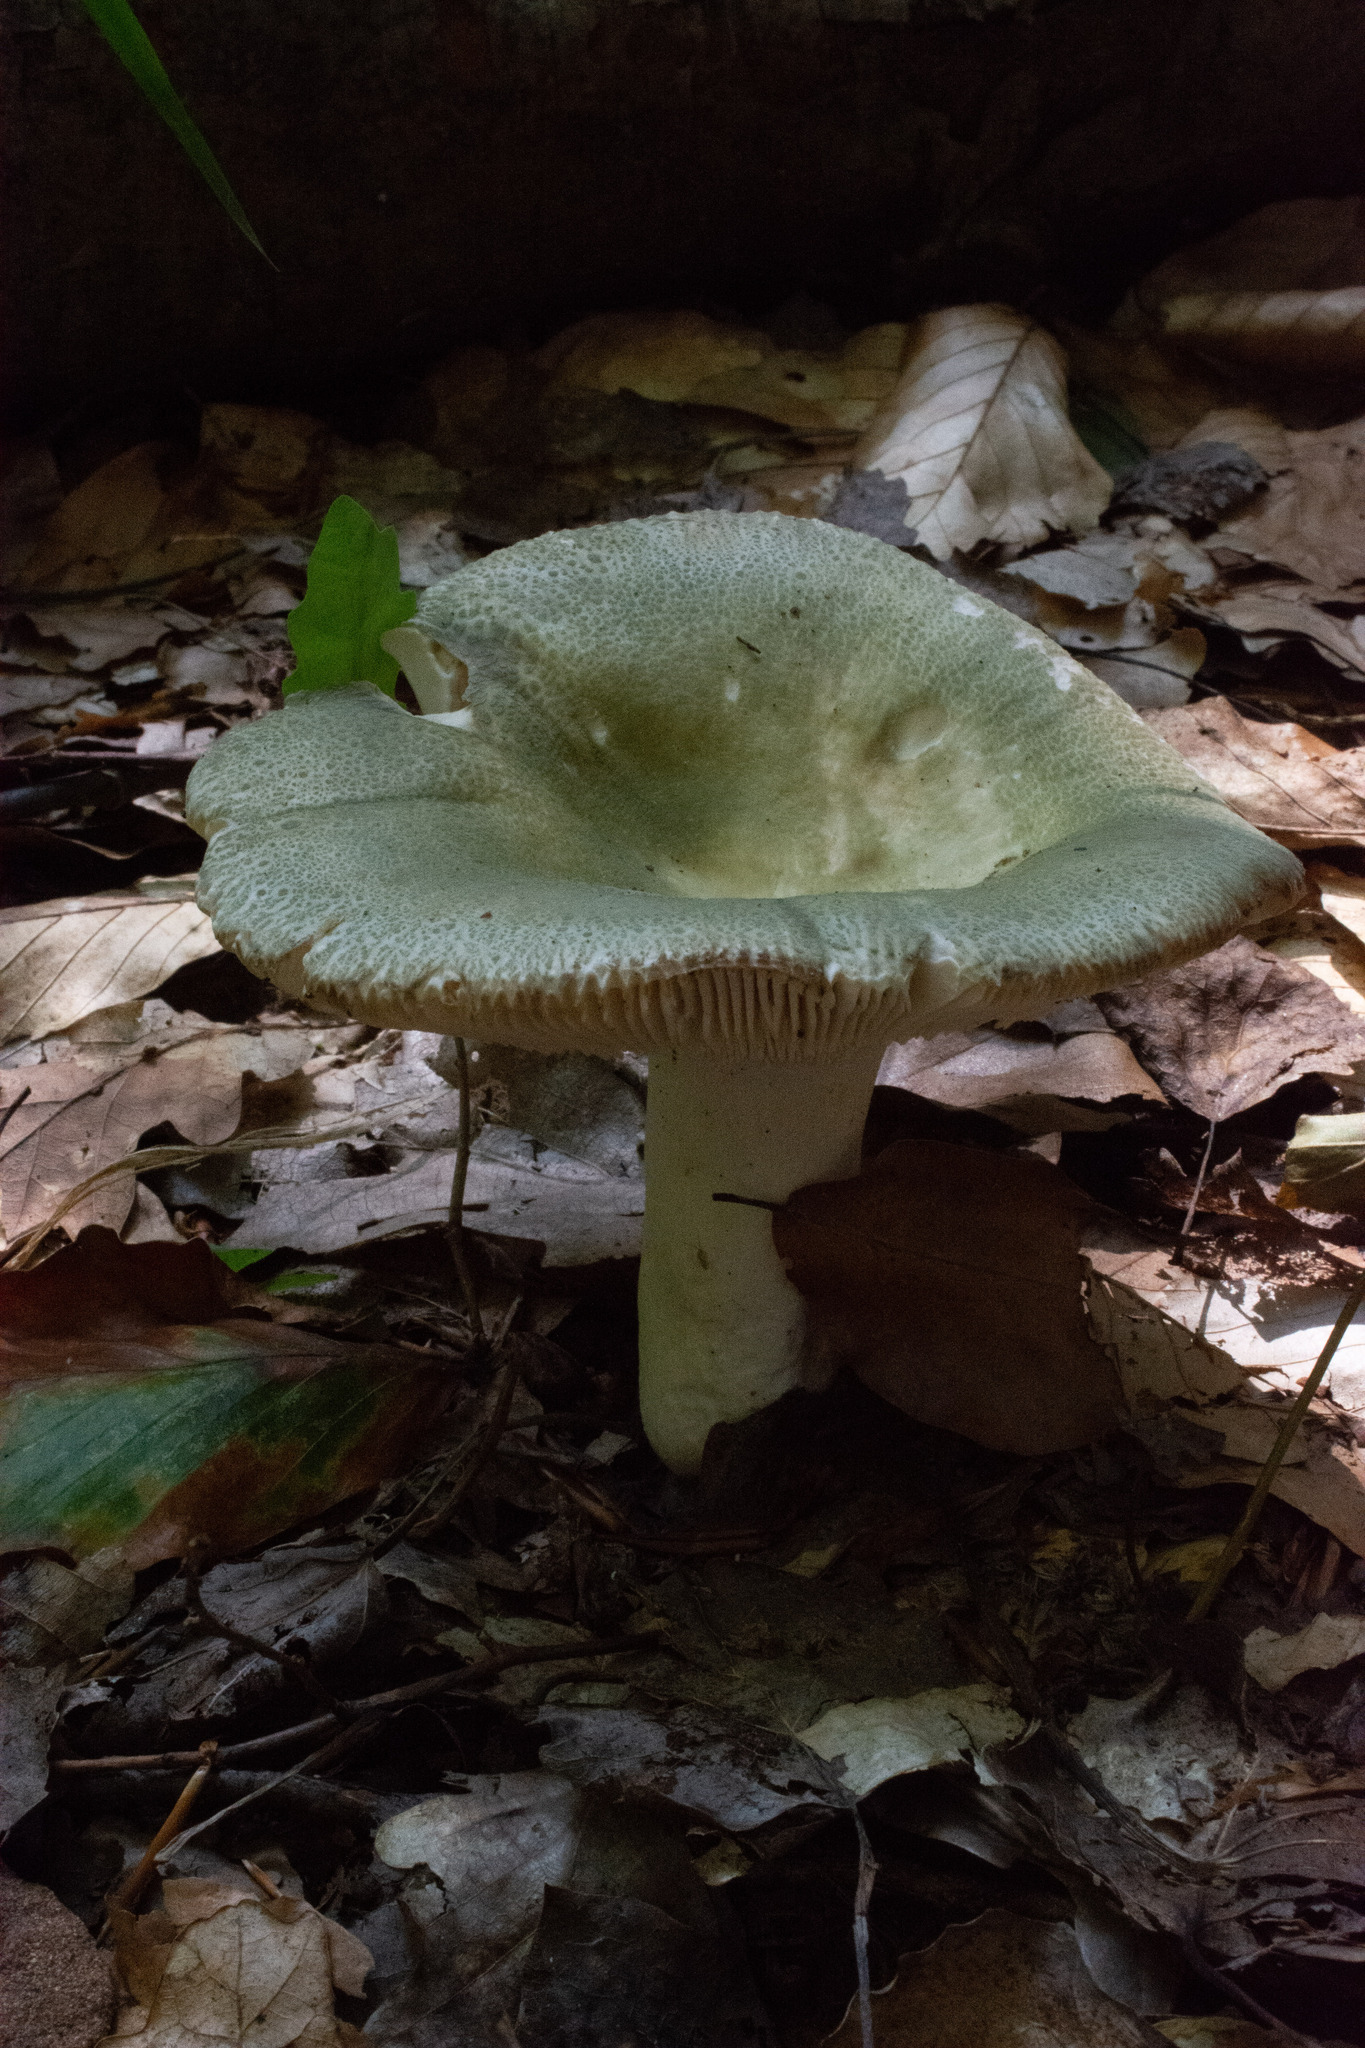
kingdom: Fungi
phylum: Basidiomycota
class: Agaricomycetes
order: Russulales
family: Russulaceae
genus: Russula
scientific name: Russula virescens
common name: Greencracked brittlegill
